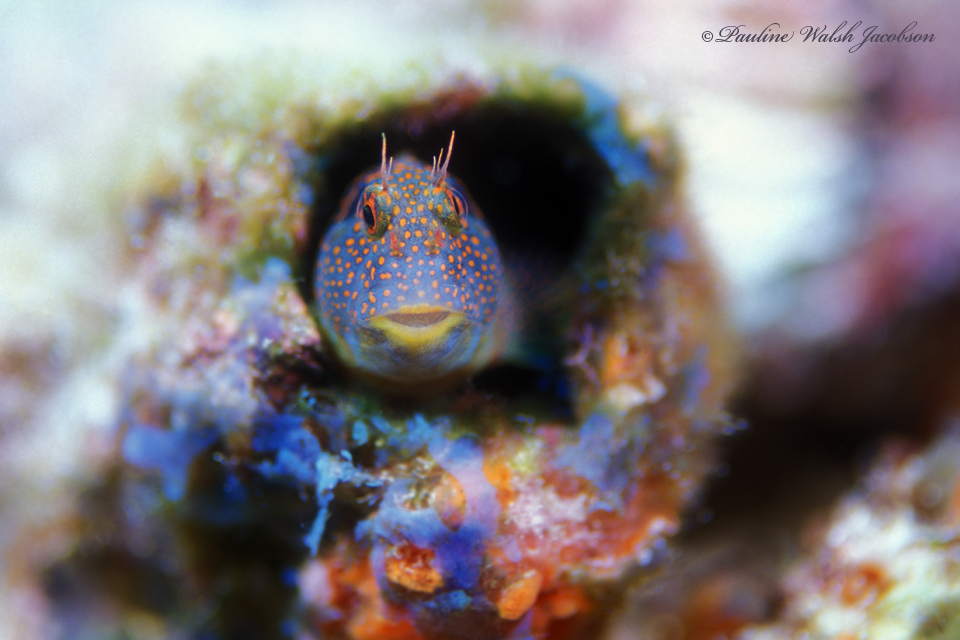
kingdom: Animalia
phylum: Chordata
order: Perciformes
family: Blenniidae
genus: Hypsoblennius
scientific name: Hypsoblennius invemar
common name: Tessellated blenny
